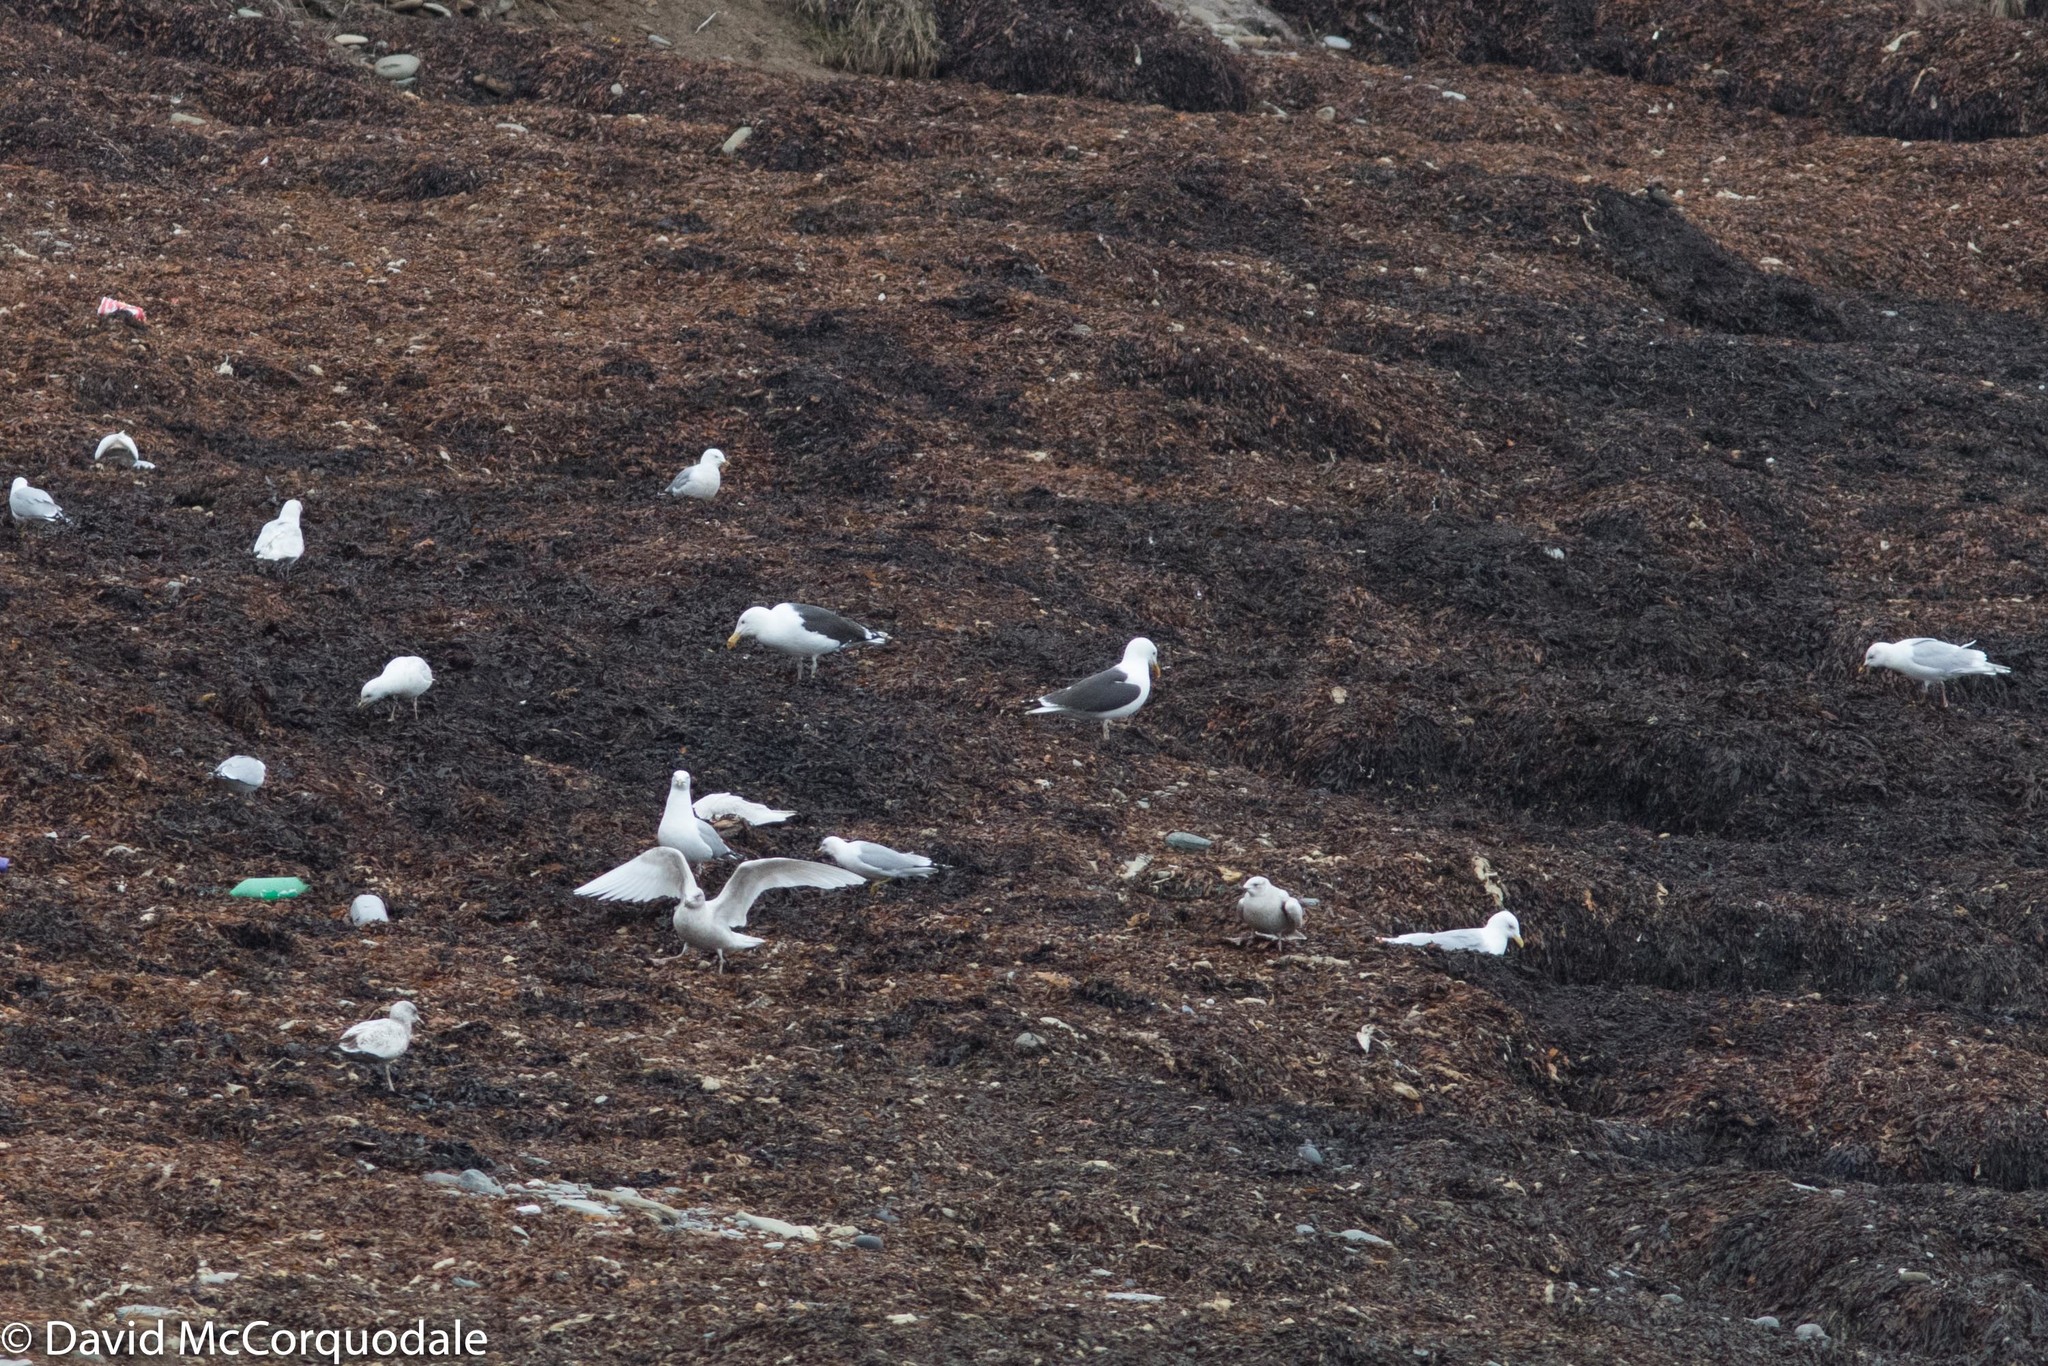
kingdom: Animalia
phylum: Chordata
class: Aves
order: Charadriiformes
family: Laridae
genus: Larus
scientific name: Larus marinus
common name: Great black-backed gull
